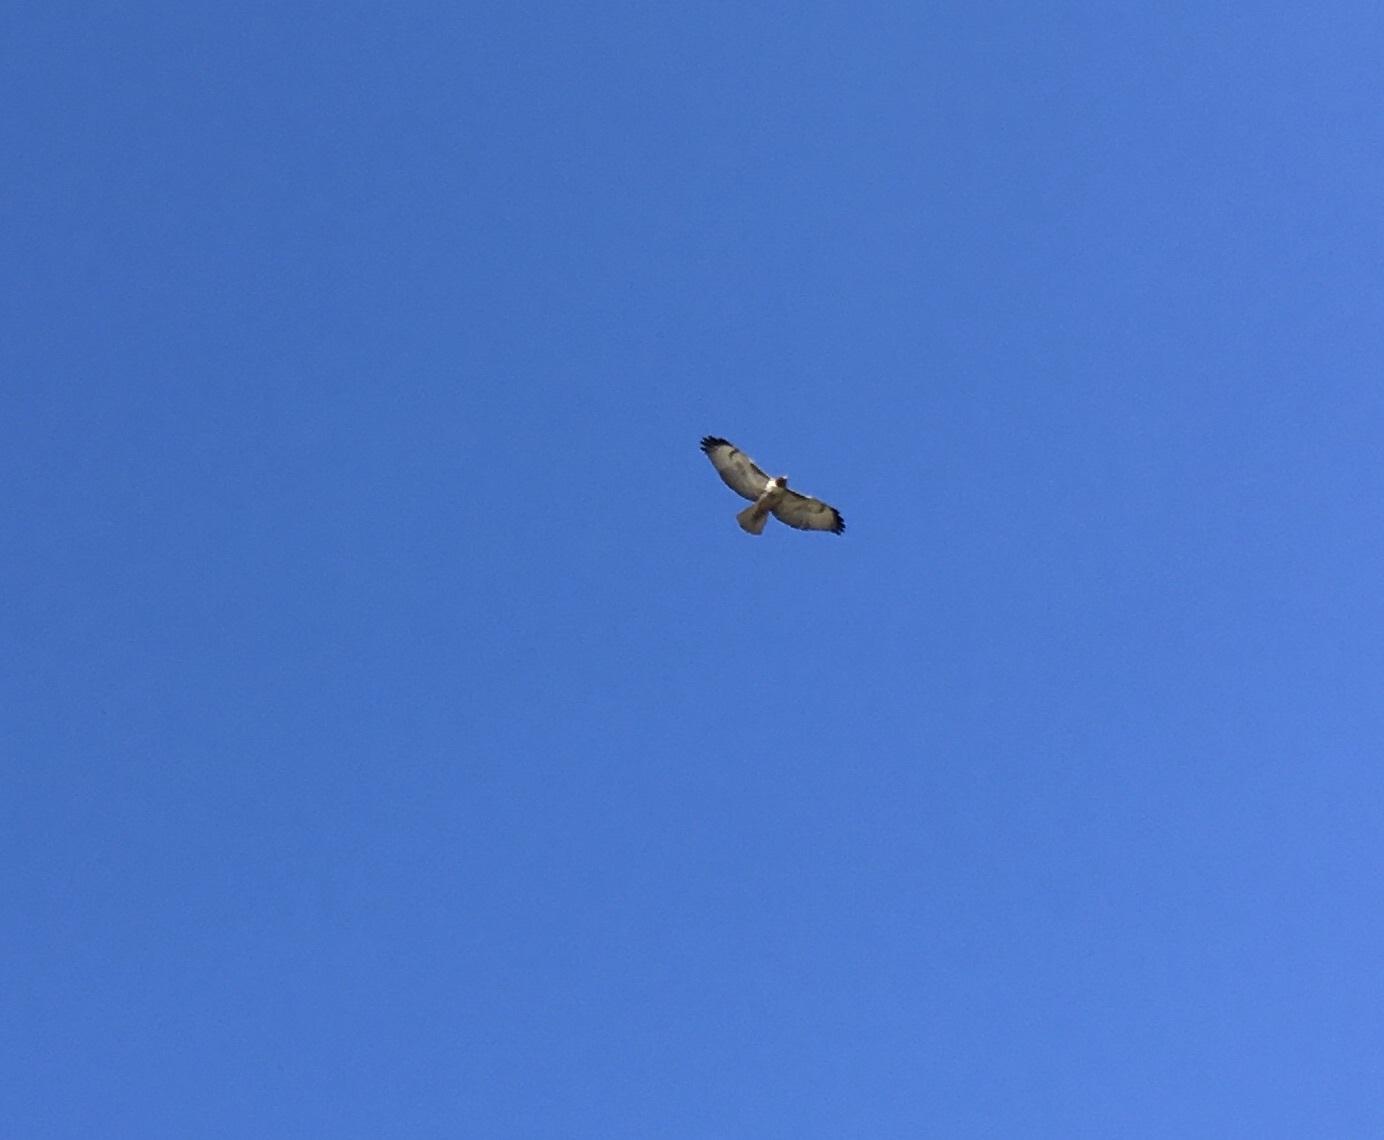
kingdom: Animalia
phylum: Chordata
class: Aves
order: Accipitriformes
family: Accipitridae
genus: Buteo
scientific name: Buteo jamaicensis
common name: Red-tailed hawk
